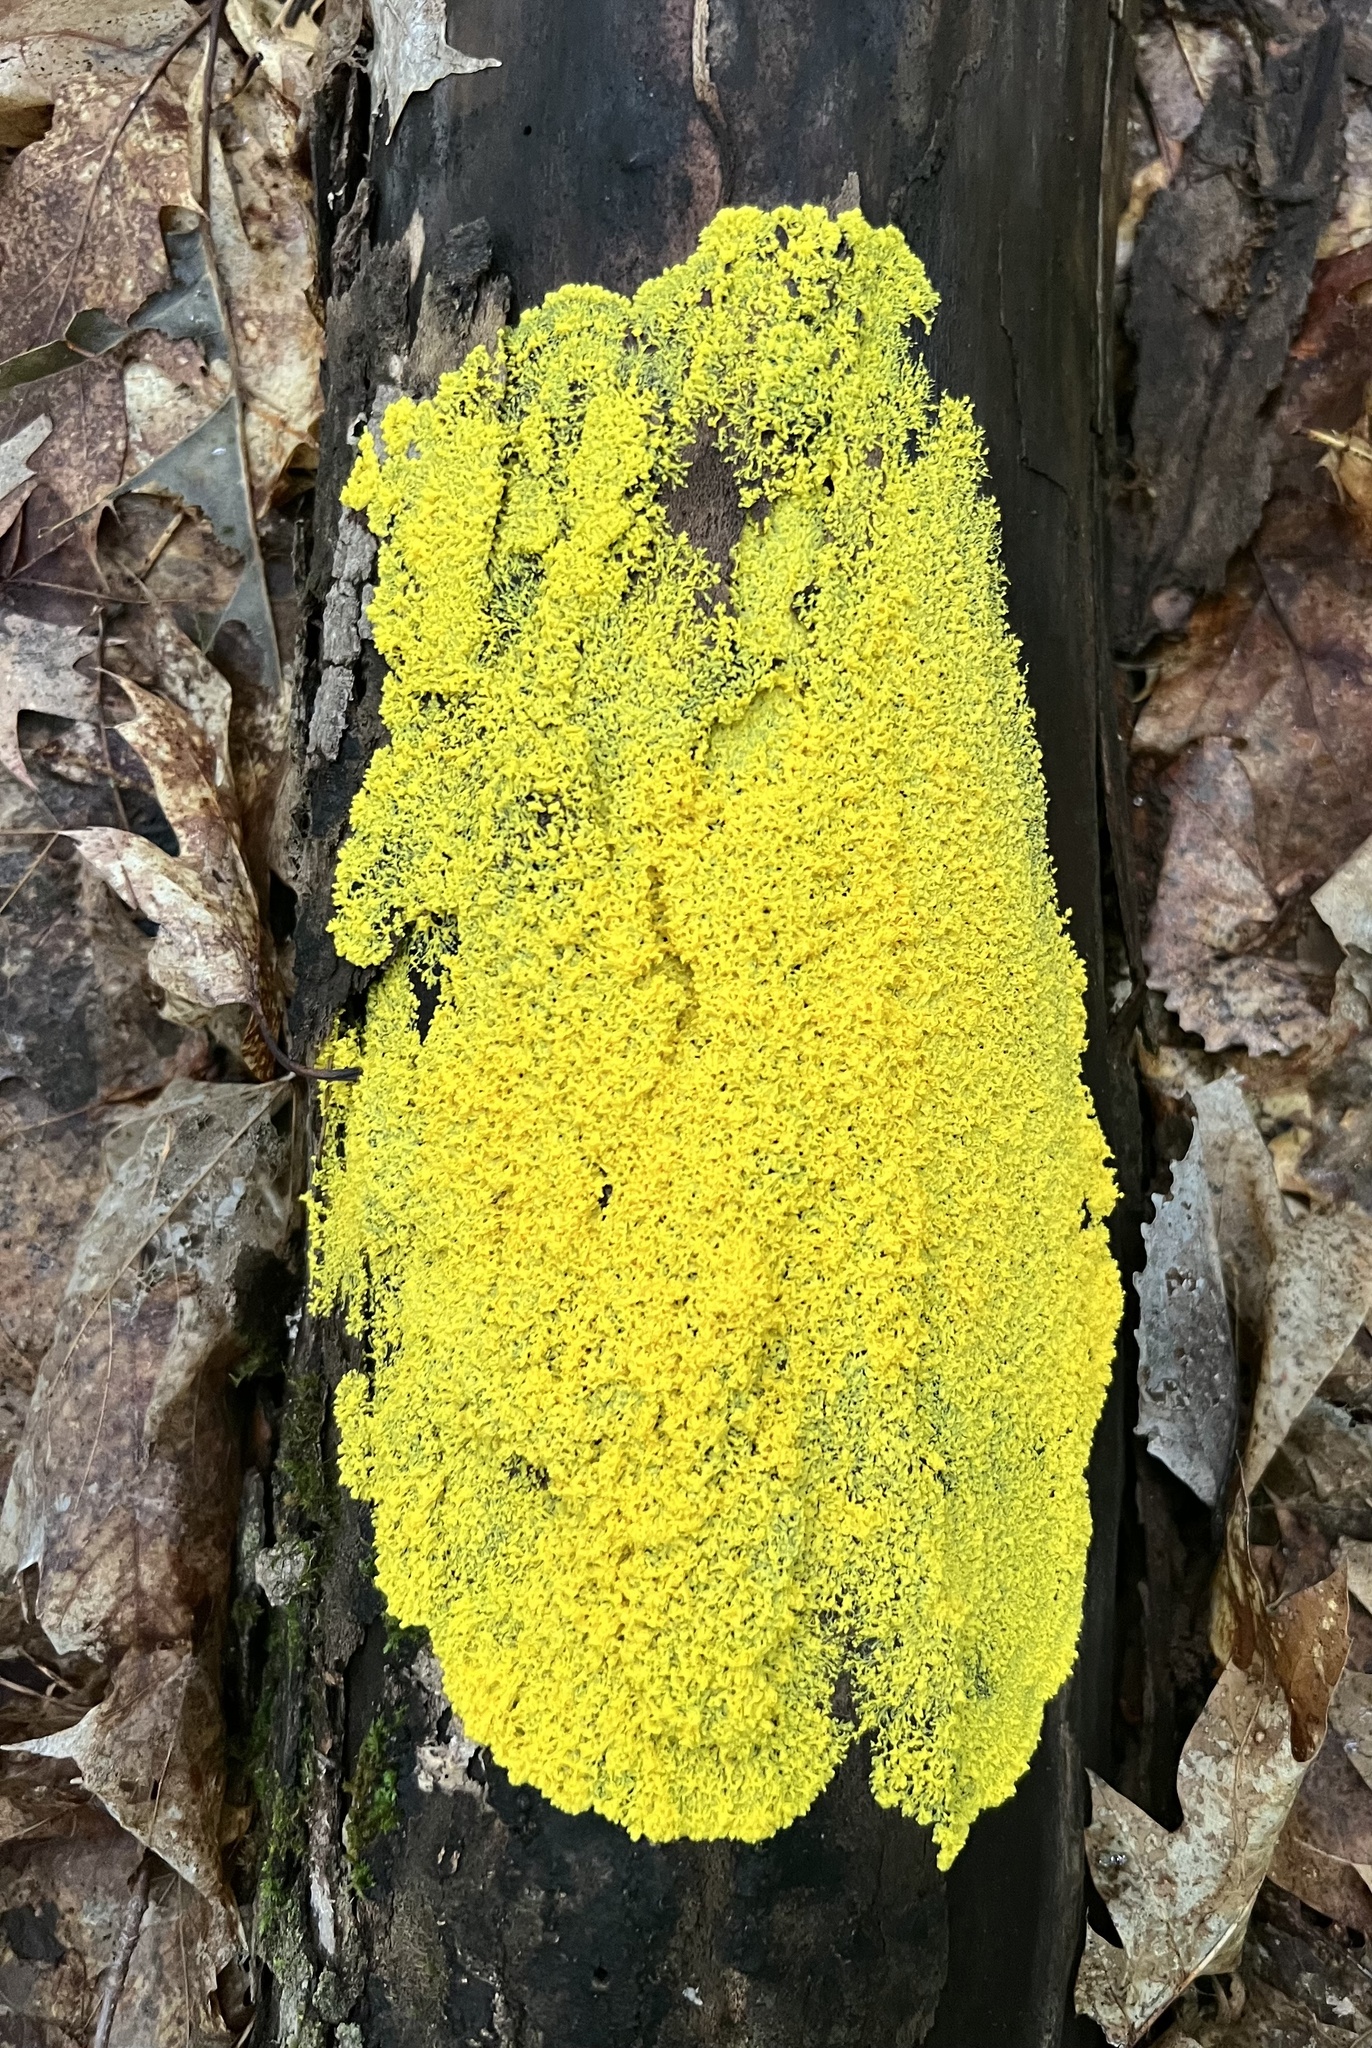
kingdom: Protozoa
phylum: Mycetozoa
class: Myxomycetes
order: Physarales
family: Physaraceae
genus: Fuligo
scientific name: Fuligo septica
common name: Dog vomit slime mold
